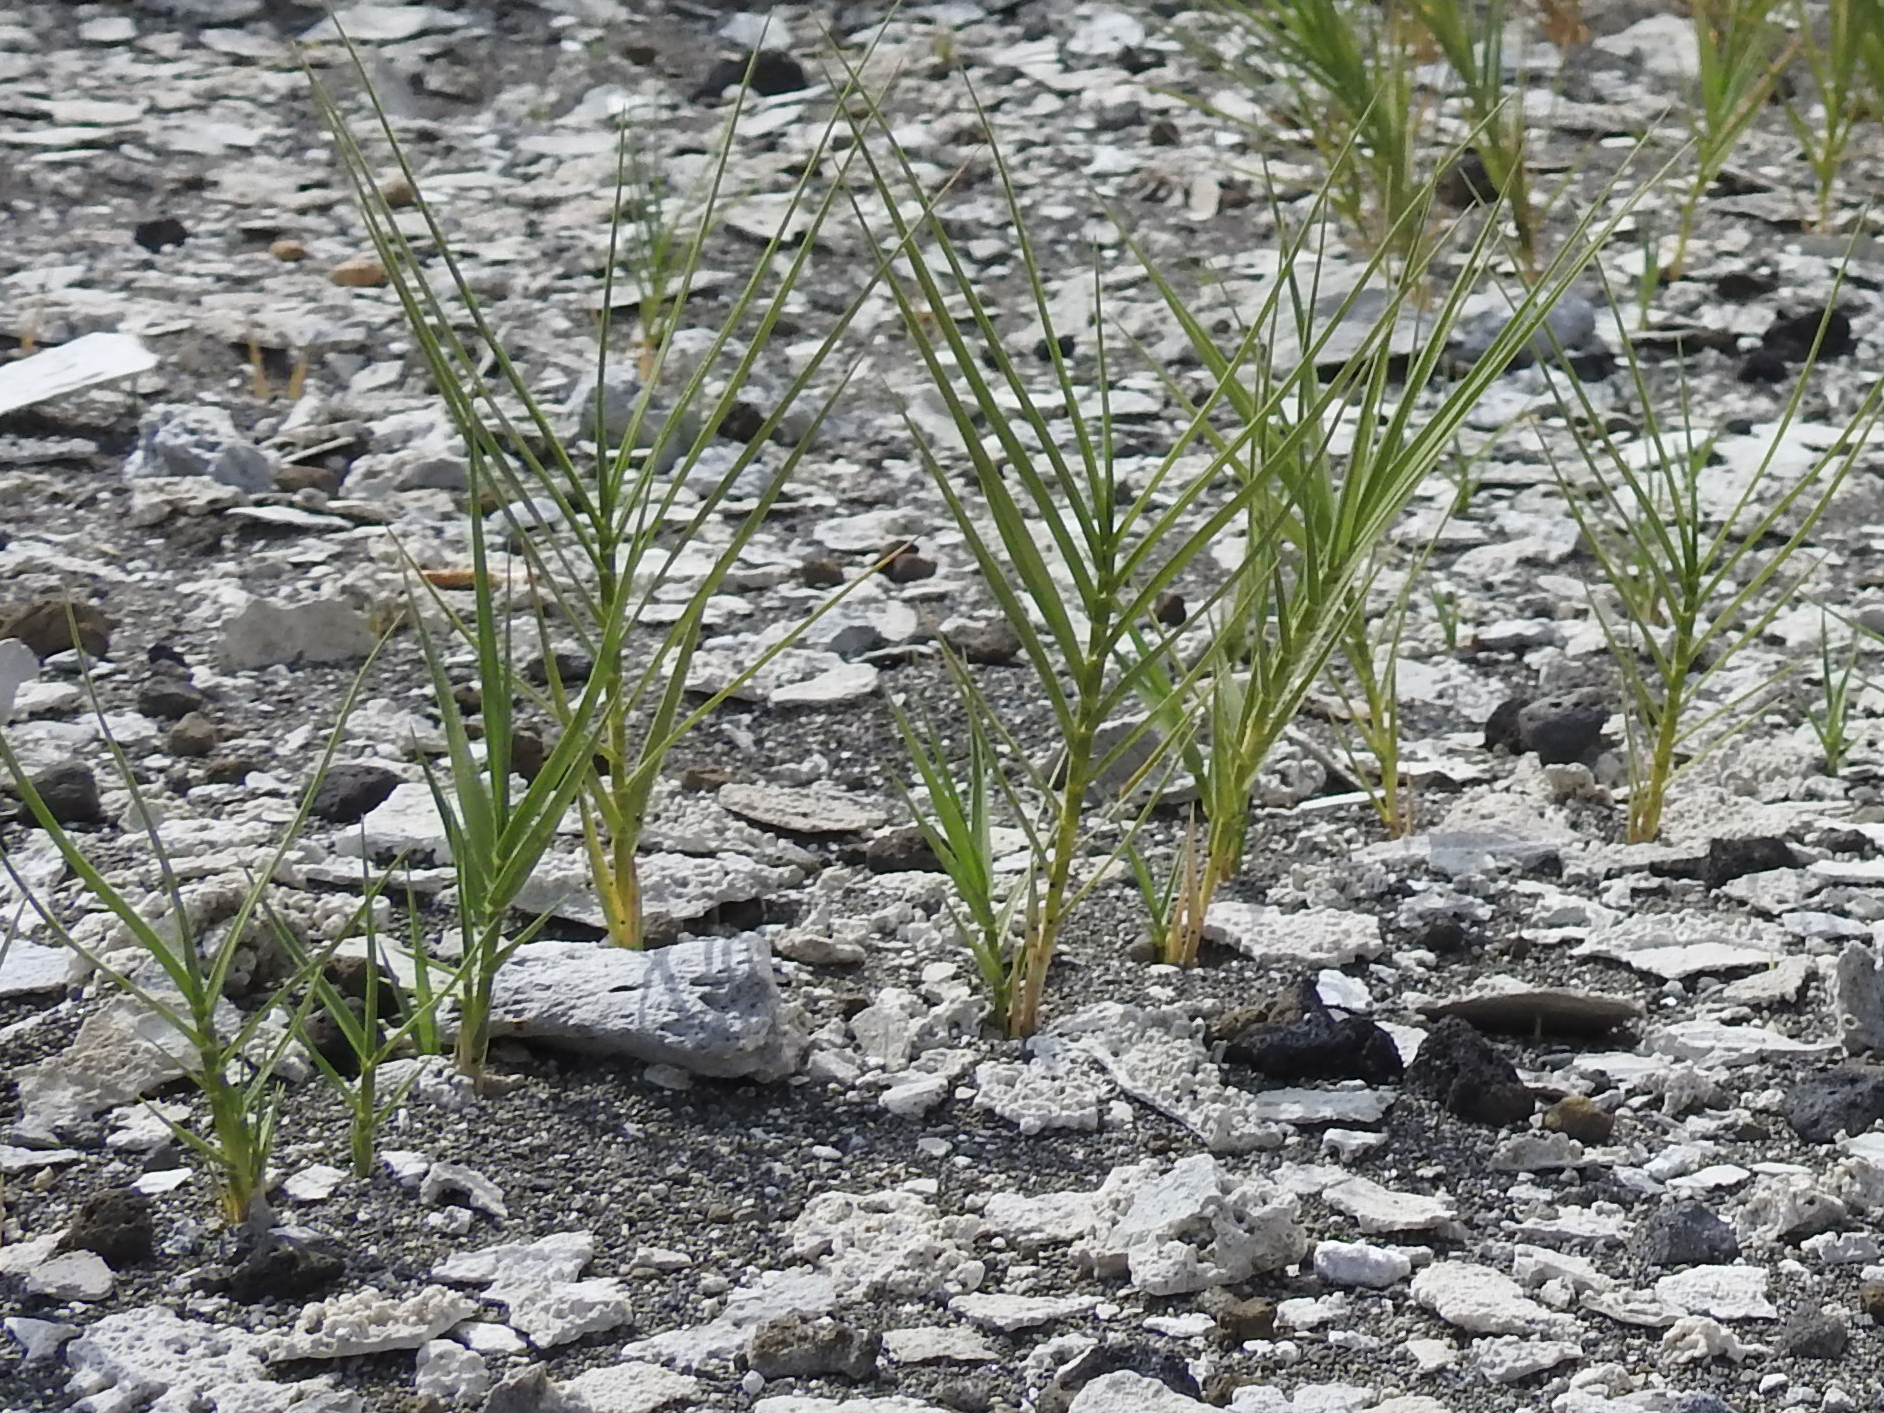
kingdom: Plantae
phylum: Tracheophyta
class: Liliopsida
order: Poales
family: Poaceae
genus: Distichlis
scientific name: Distichlis spicata
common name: Saltgrass
